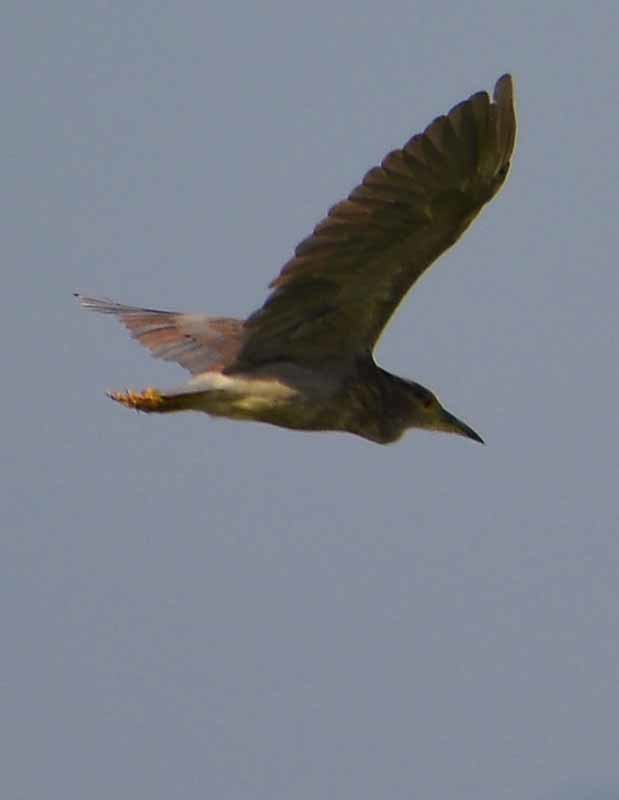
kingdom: Animalia
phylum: Chordata
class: Aves
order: Pelecaniformes
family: Ardeidae
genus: Nycticorax
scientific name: Nycticorax nycticorax
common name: Black-crowned night heron
